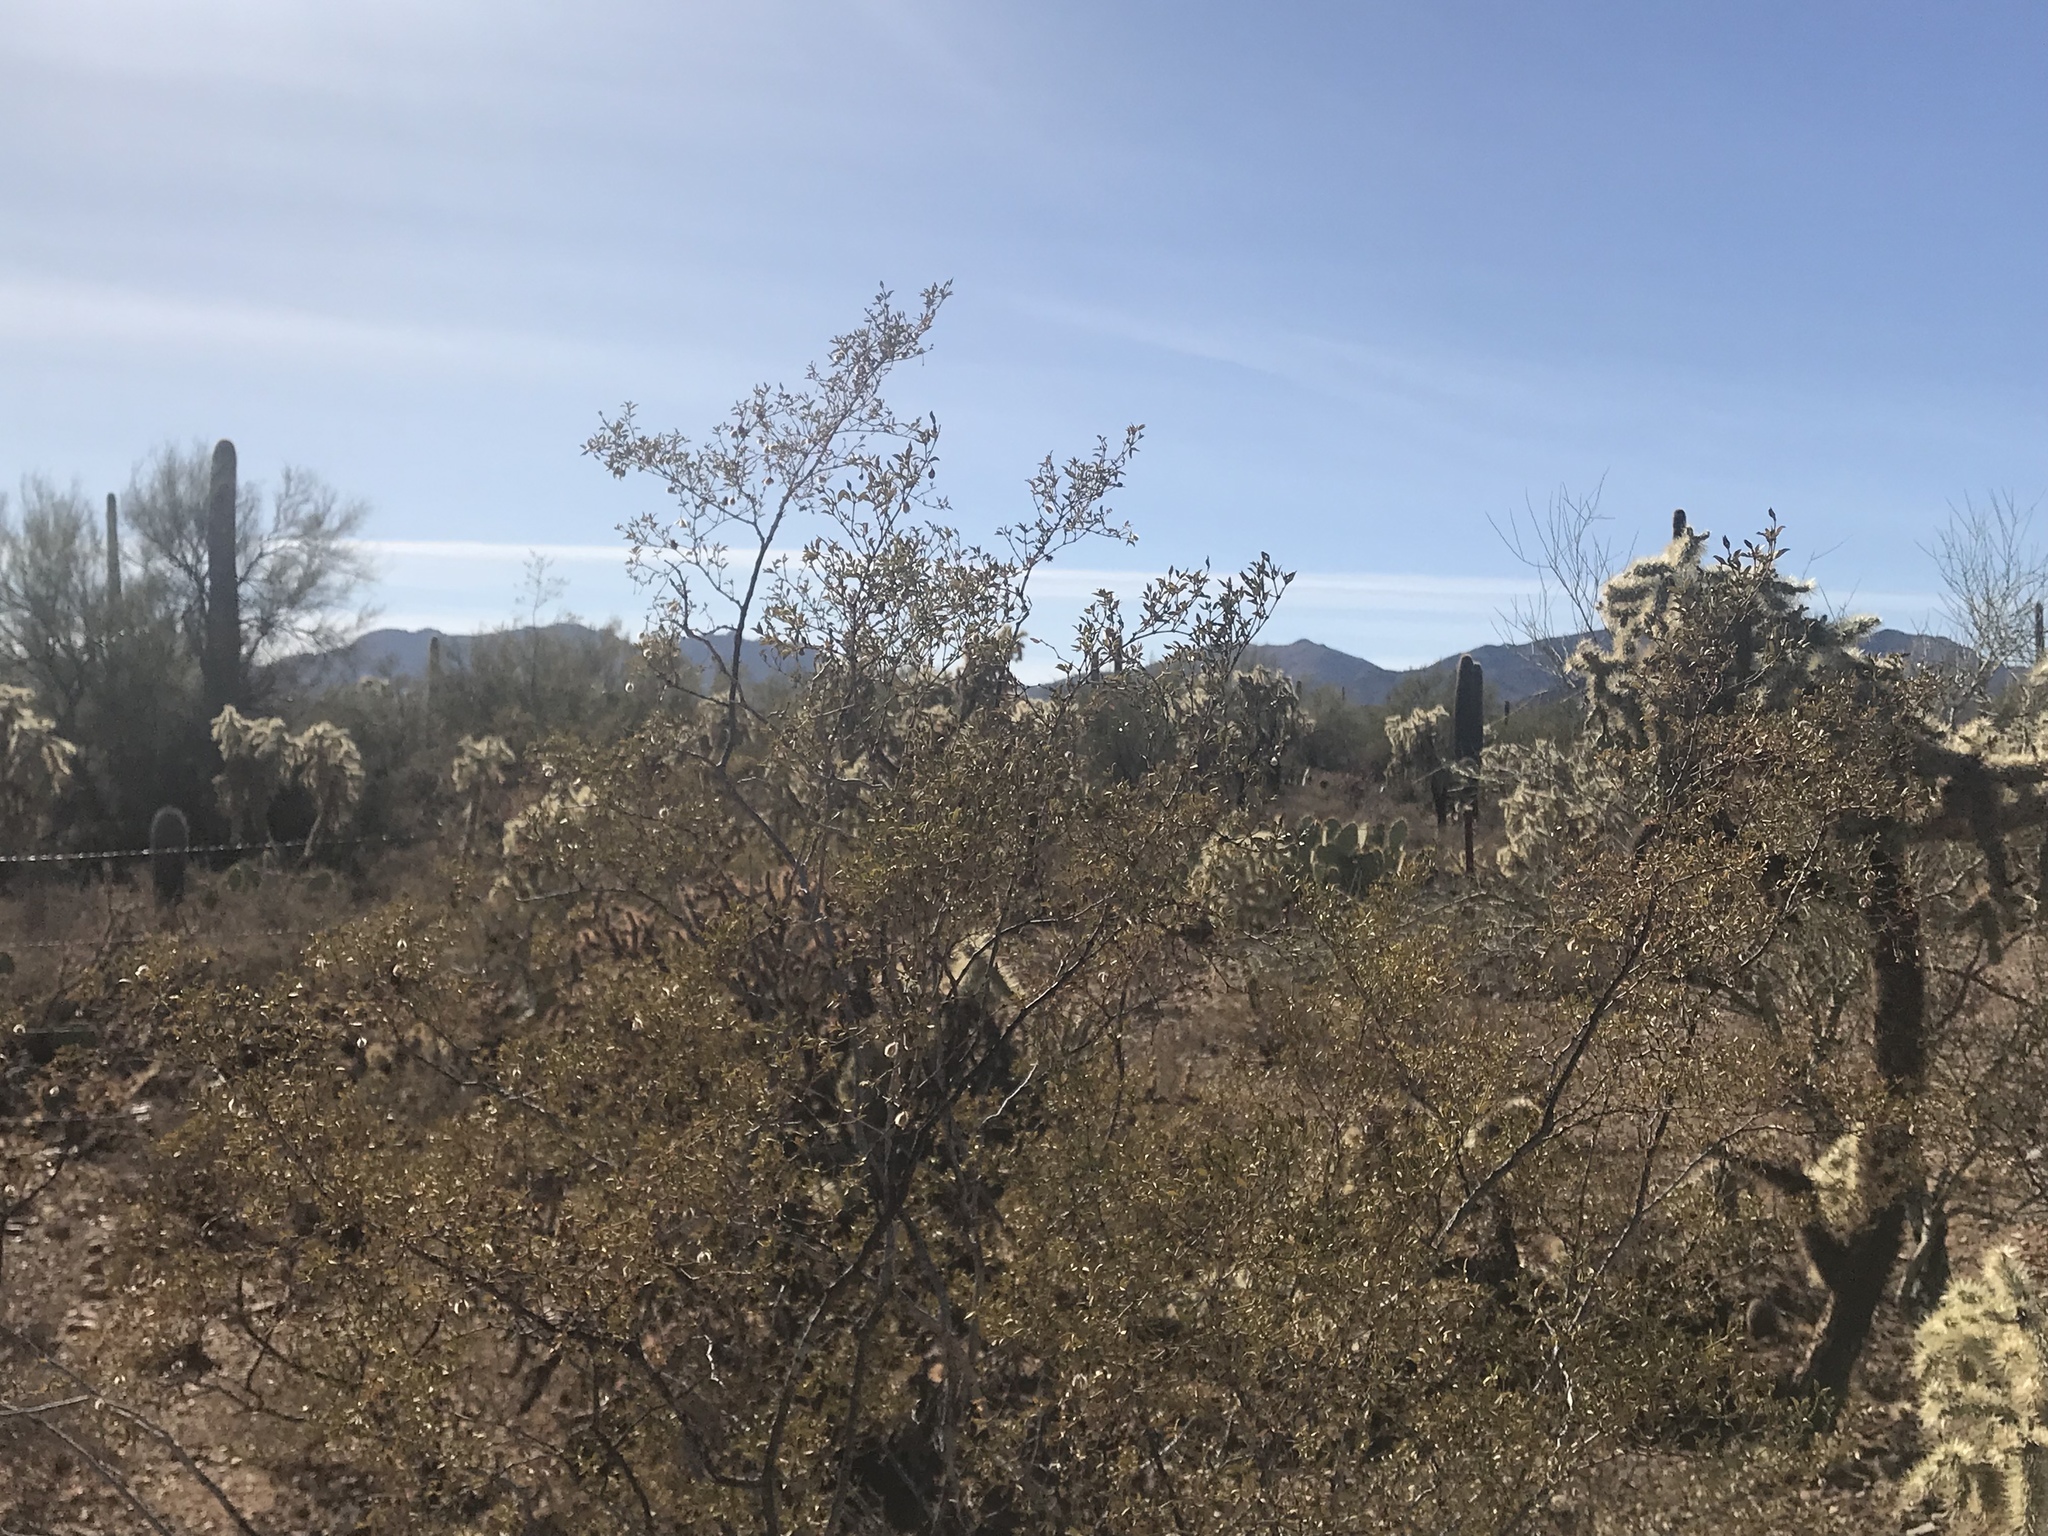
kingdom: Plantae
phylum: Tracheophyta
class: Magnoliopsida
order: Zygophyllales
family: Zygophyllaceae
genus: Larrea
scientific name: Larrea tridentata
